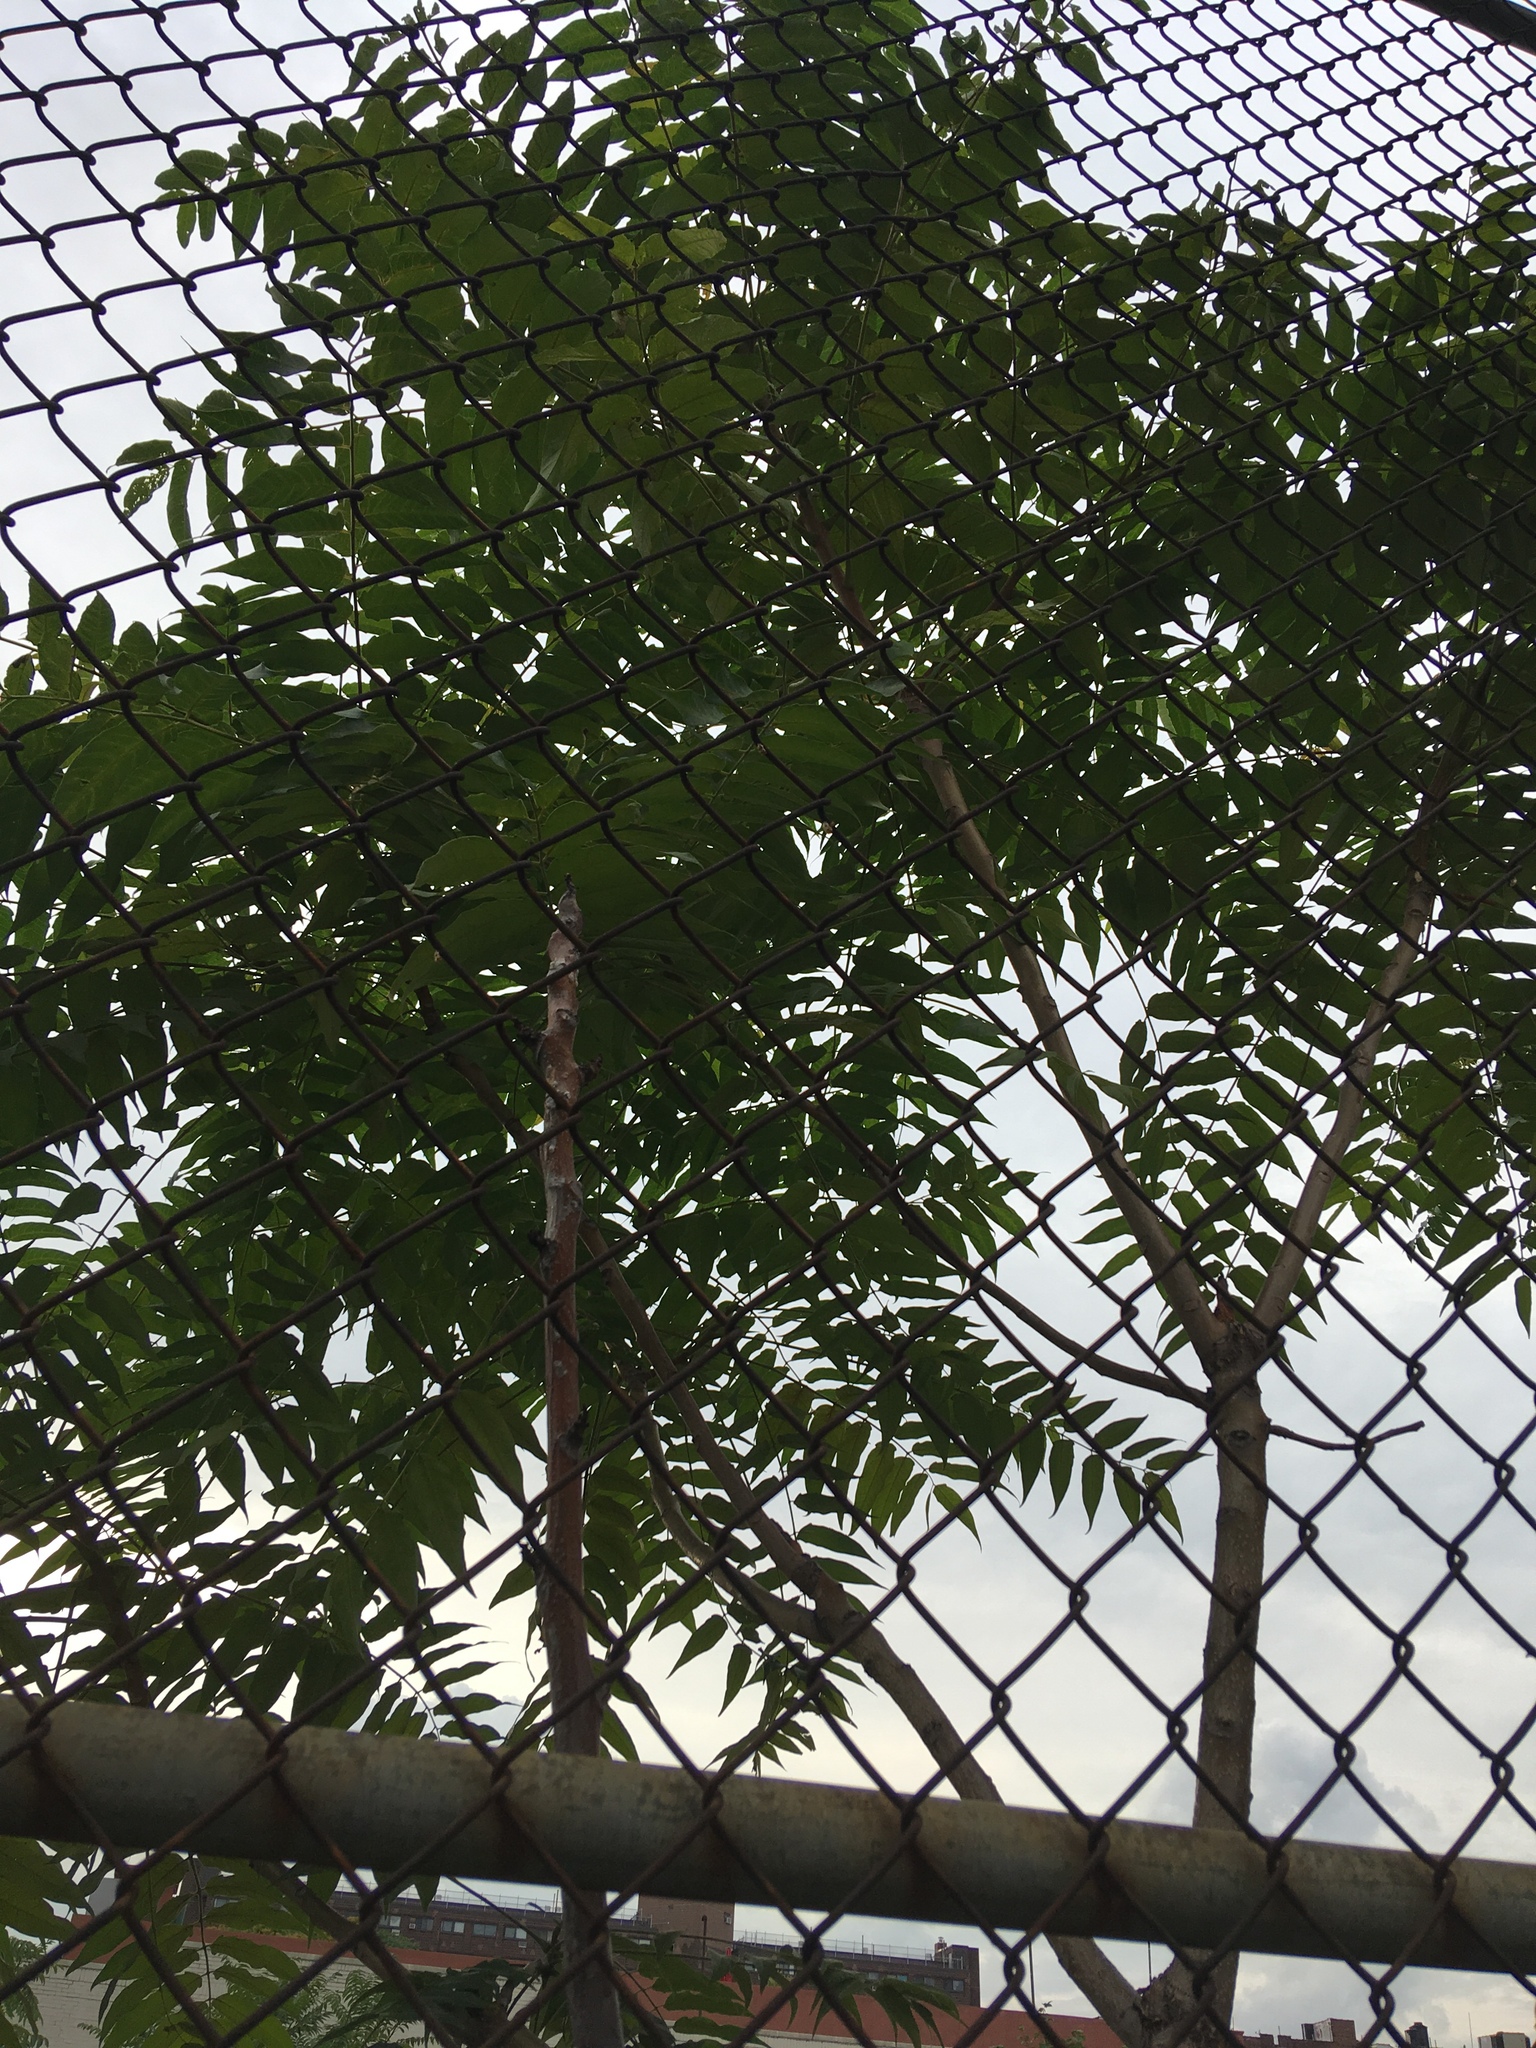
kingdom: Plantae
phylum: Tracheophyta
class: Magnoliopsida
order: Sapindales
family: Simaroubaceae
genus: Ailanthus
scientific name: Ailanthus altissima
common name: Tree-of-heaven
